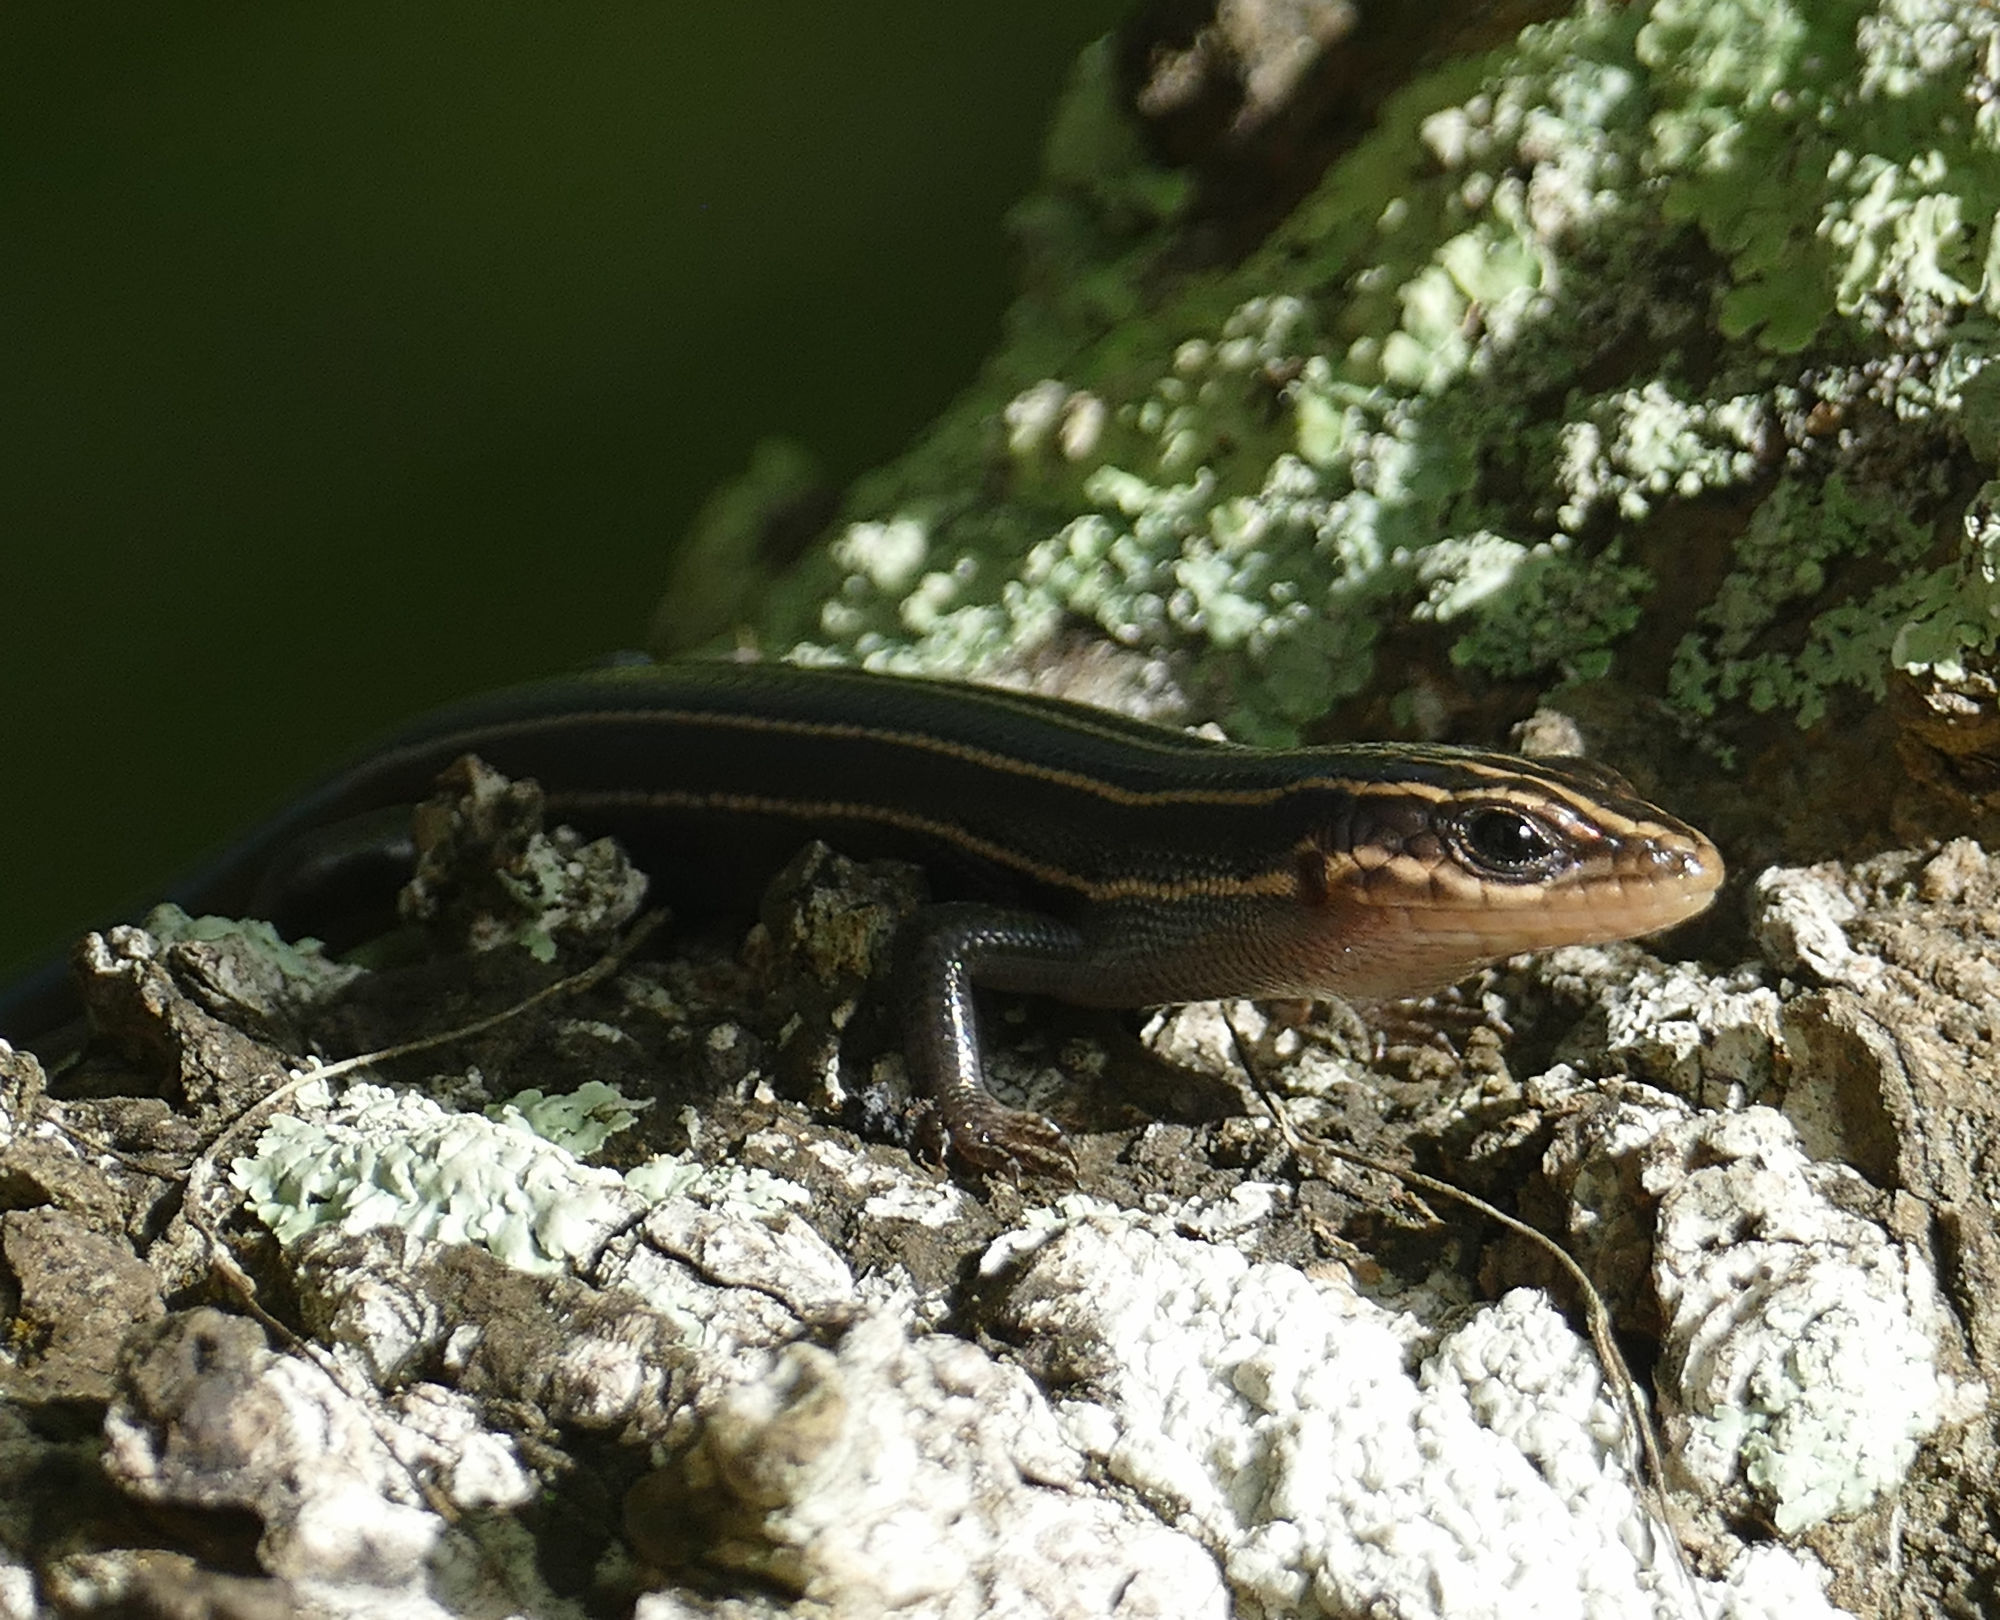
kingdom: Animalia
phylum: Chordata
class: Squamata
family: Scincidae
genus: Plestiodon
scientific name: Plestiodon fasciatus
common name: Five-lined skink
